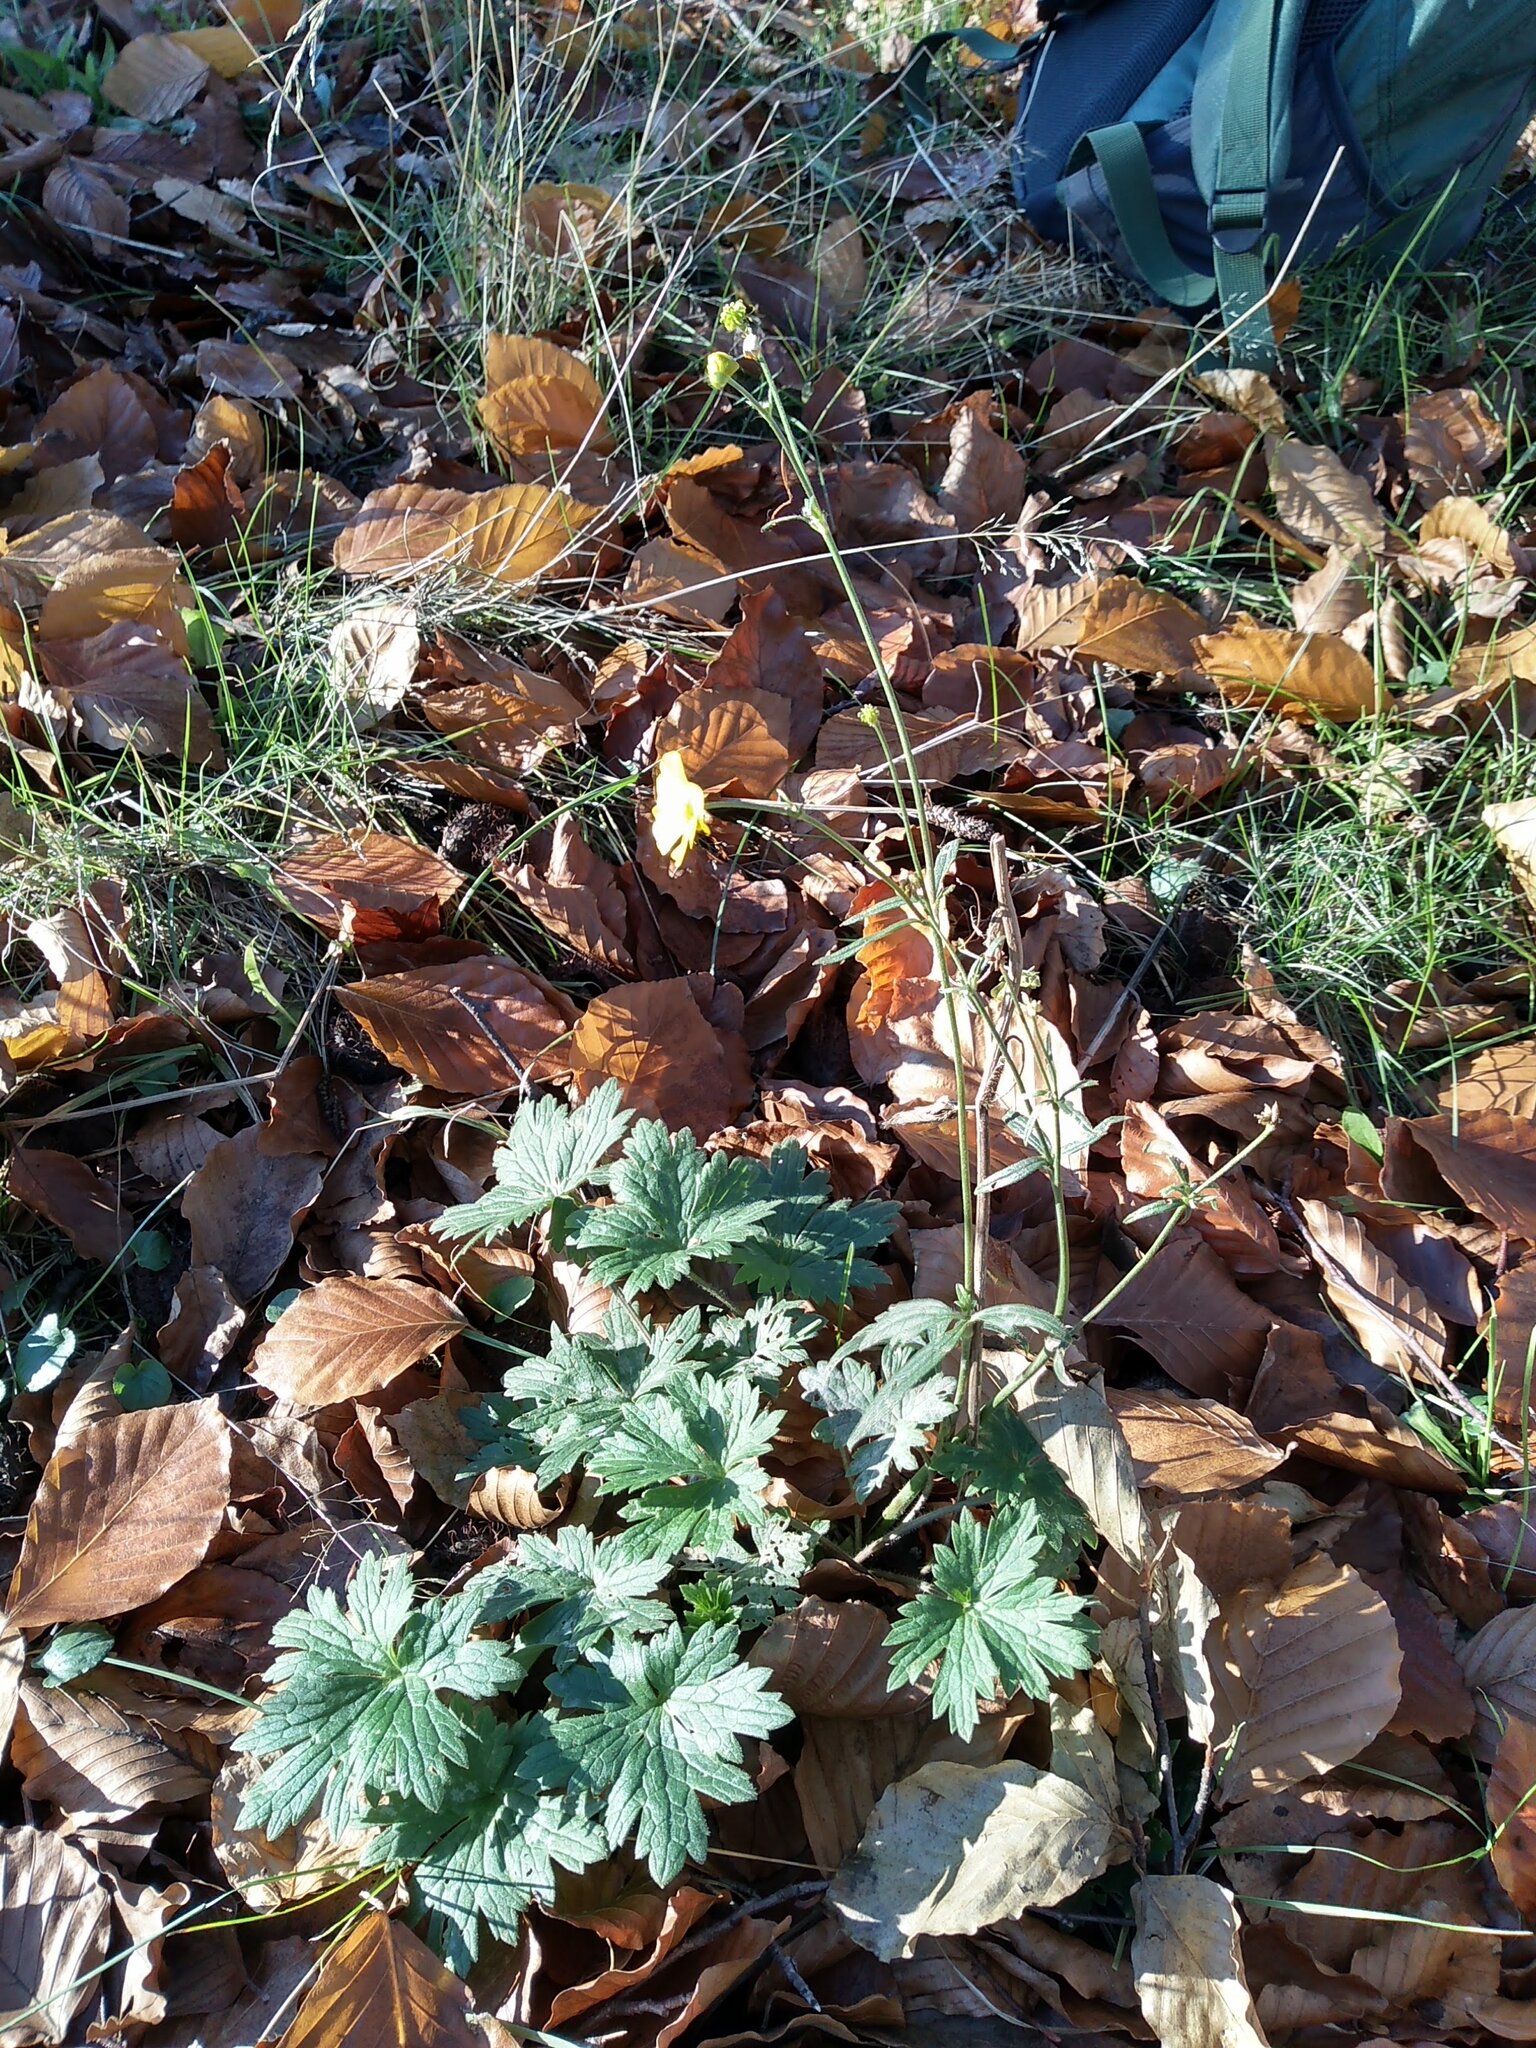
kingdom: Plantae
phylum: Tracheophyta
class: Magnoliopsida
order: Ranunculales
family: Ranunculaceae
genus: Ranunculus
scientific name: Ranunculus acris
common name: Meadow buttercup
